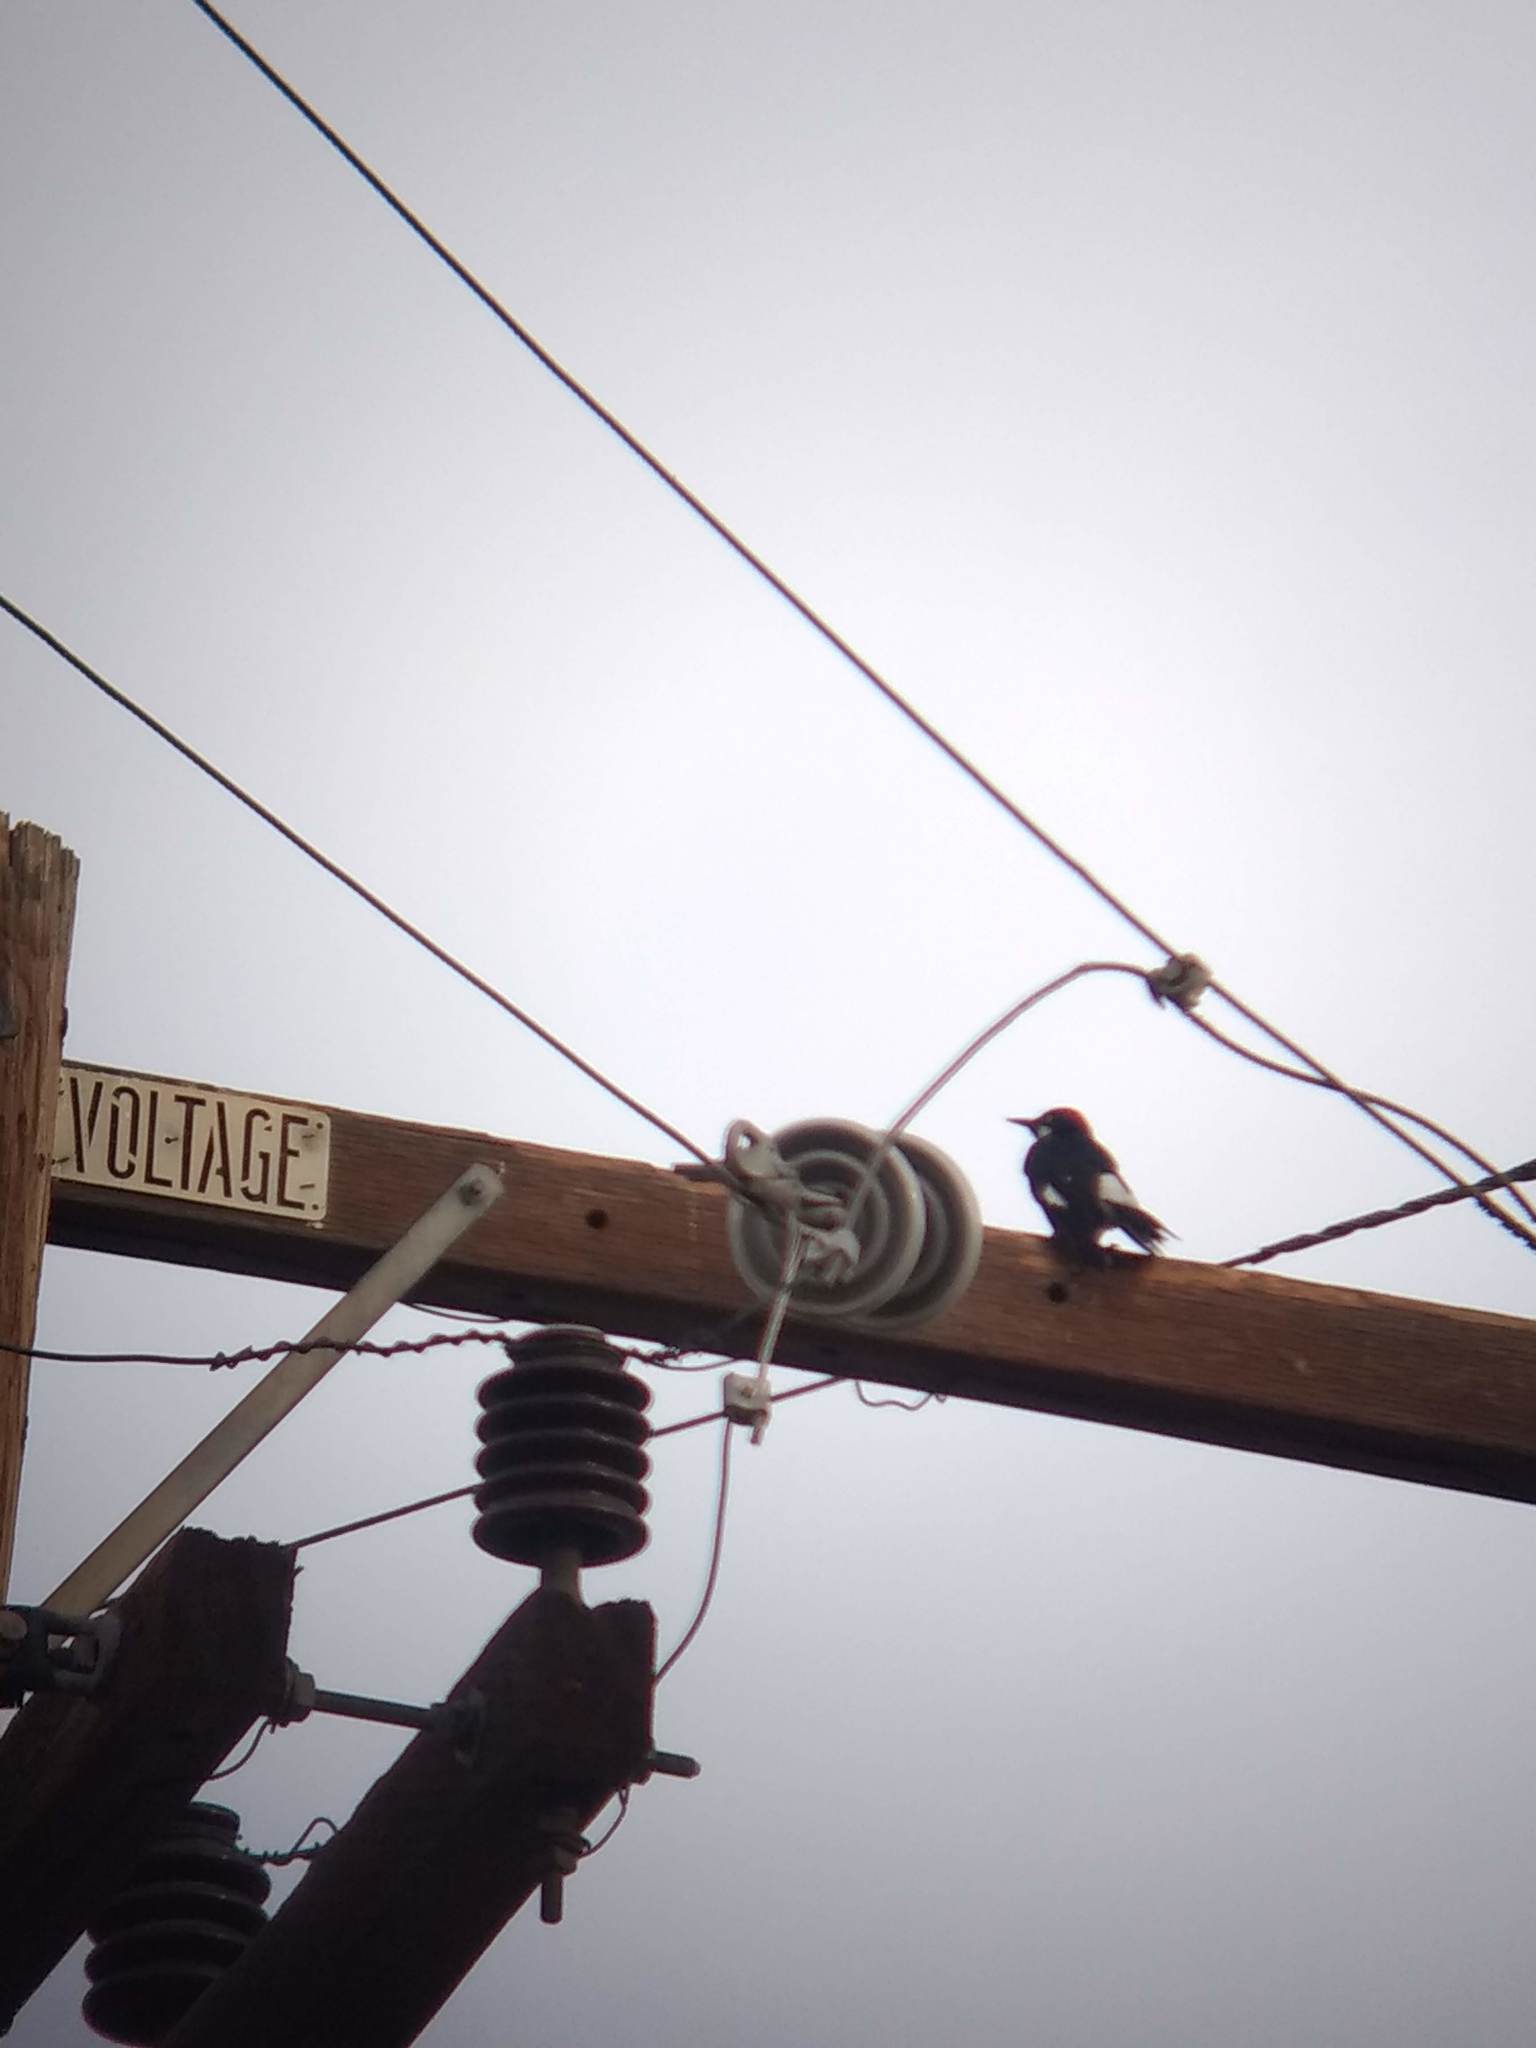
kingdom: Animalia
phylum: Chordata
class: Aves
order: Piciformes
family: Picidae
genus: Melanerpes
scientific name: Melanerpes formicivorus
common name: Acorn woodpecker
